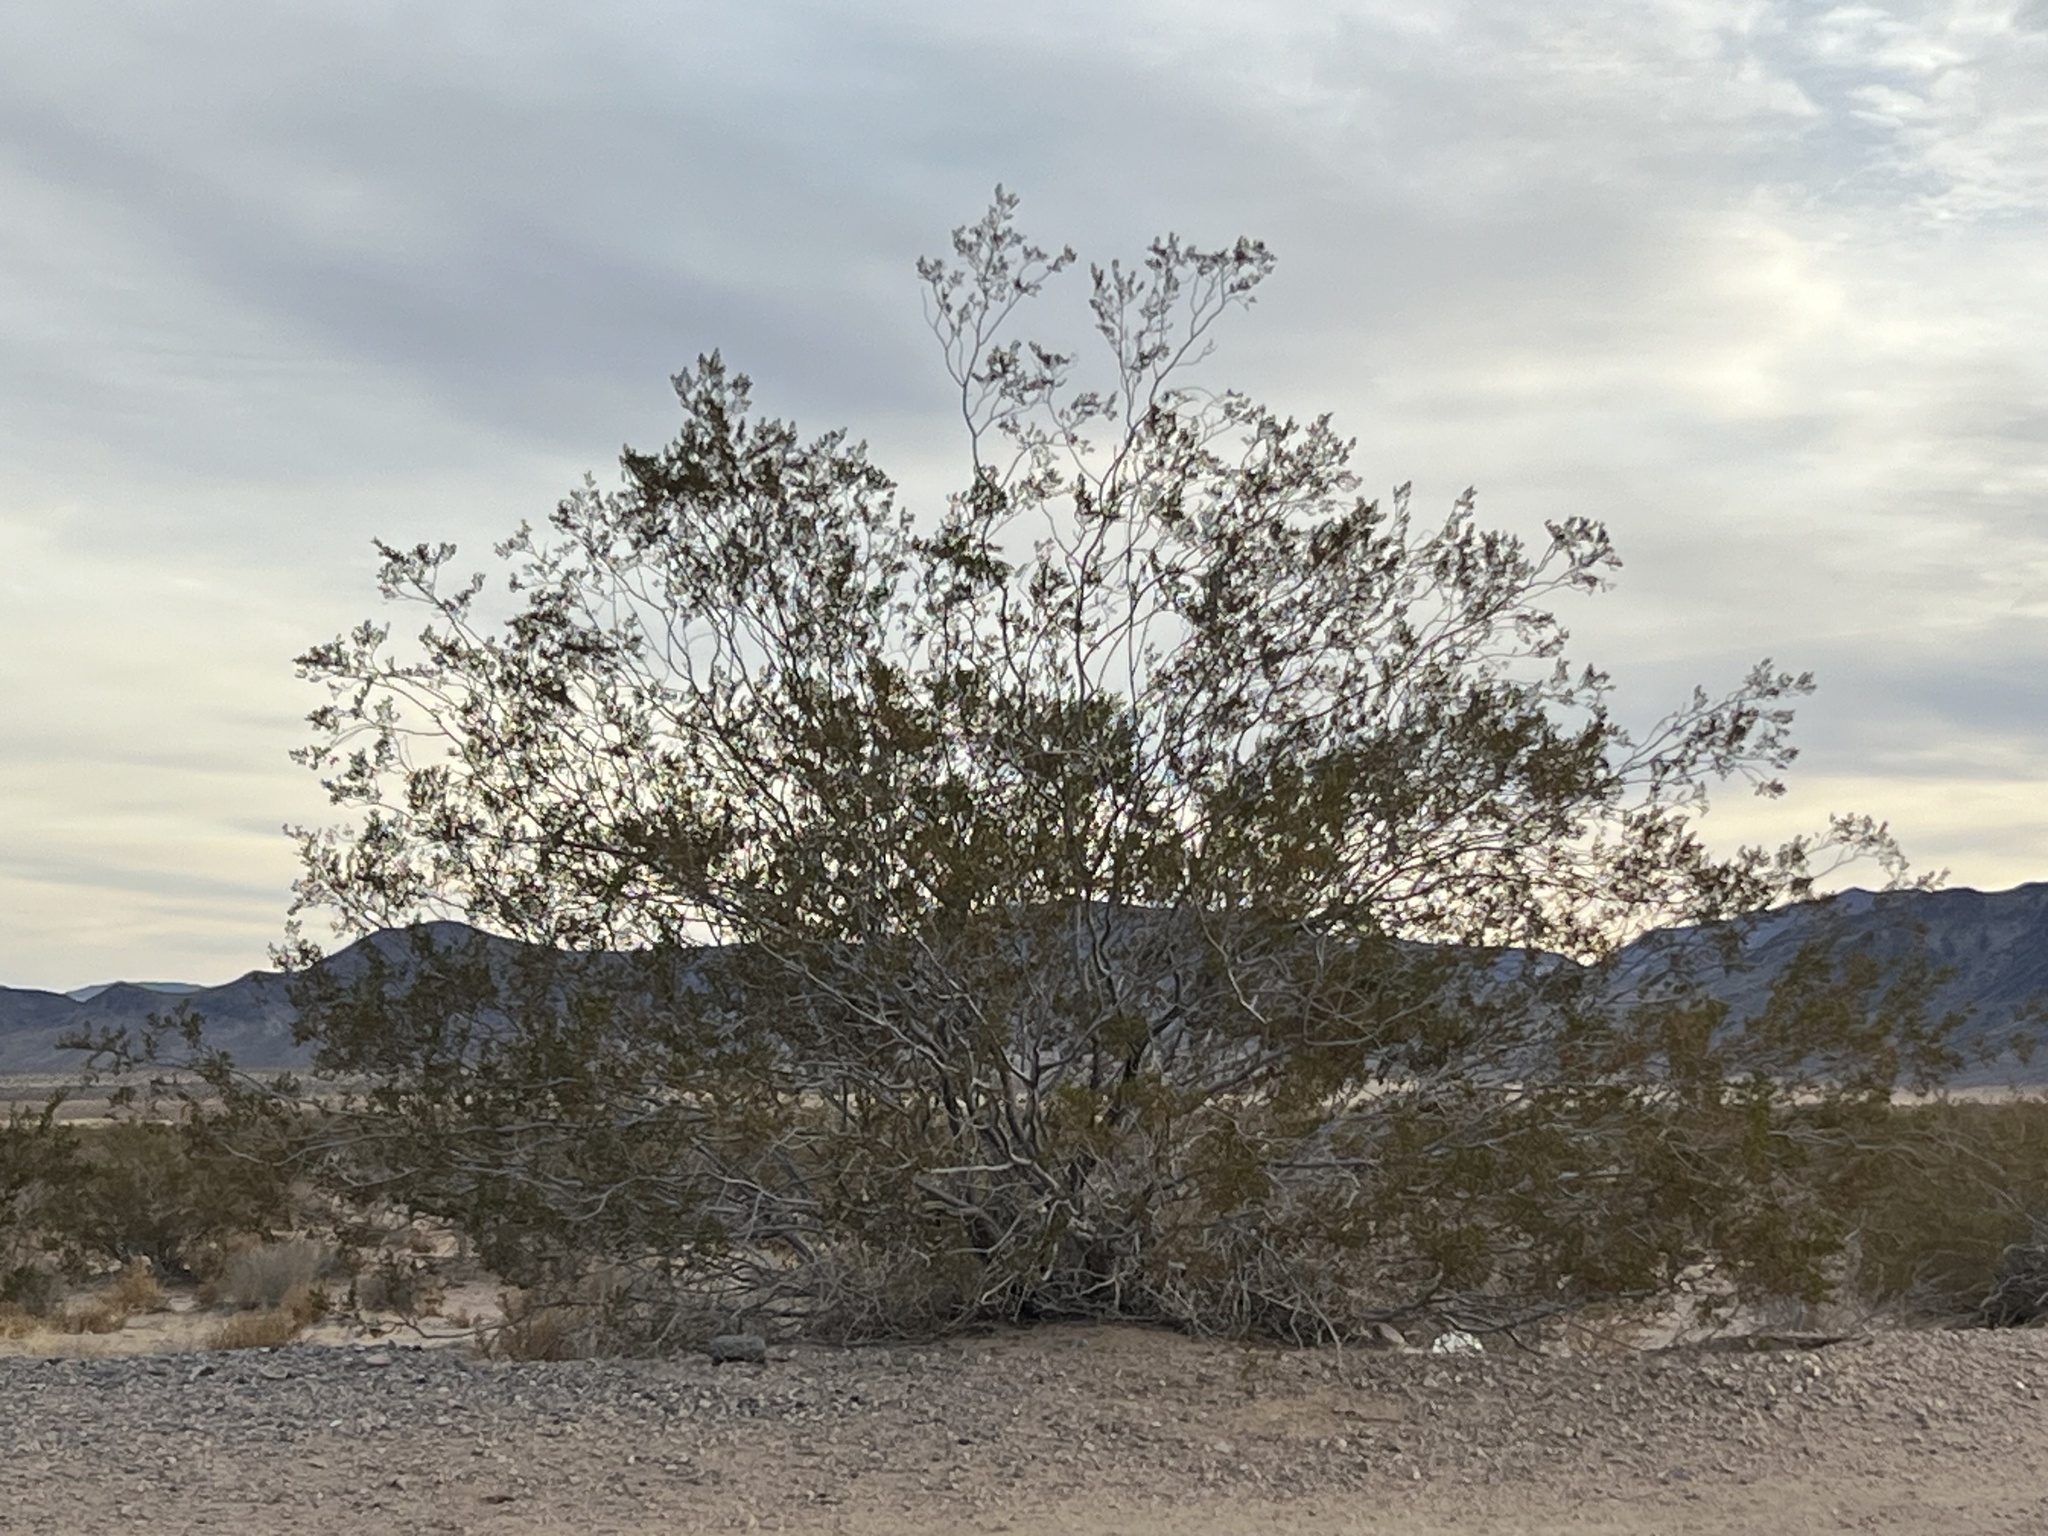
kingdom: Plantae
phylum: Tracheophyta
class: Magnoliopsida
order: Zygophyllales
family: Zygophyllaceae
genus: Larrea
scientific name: Larrea tridentata
